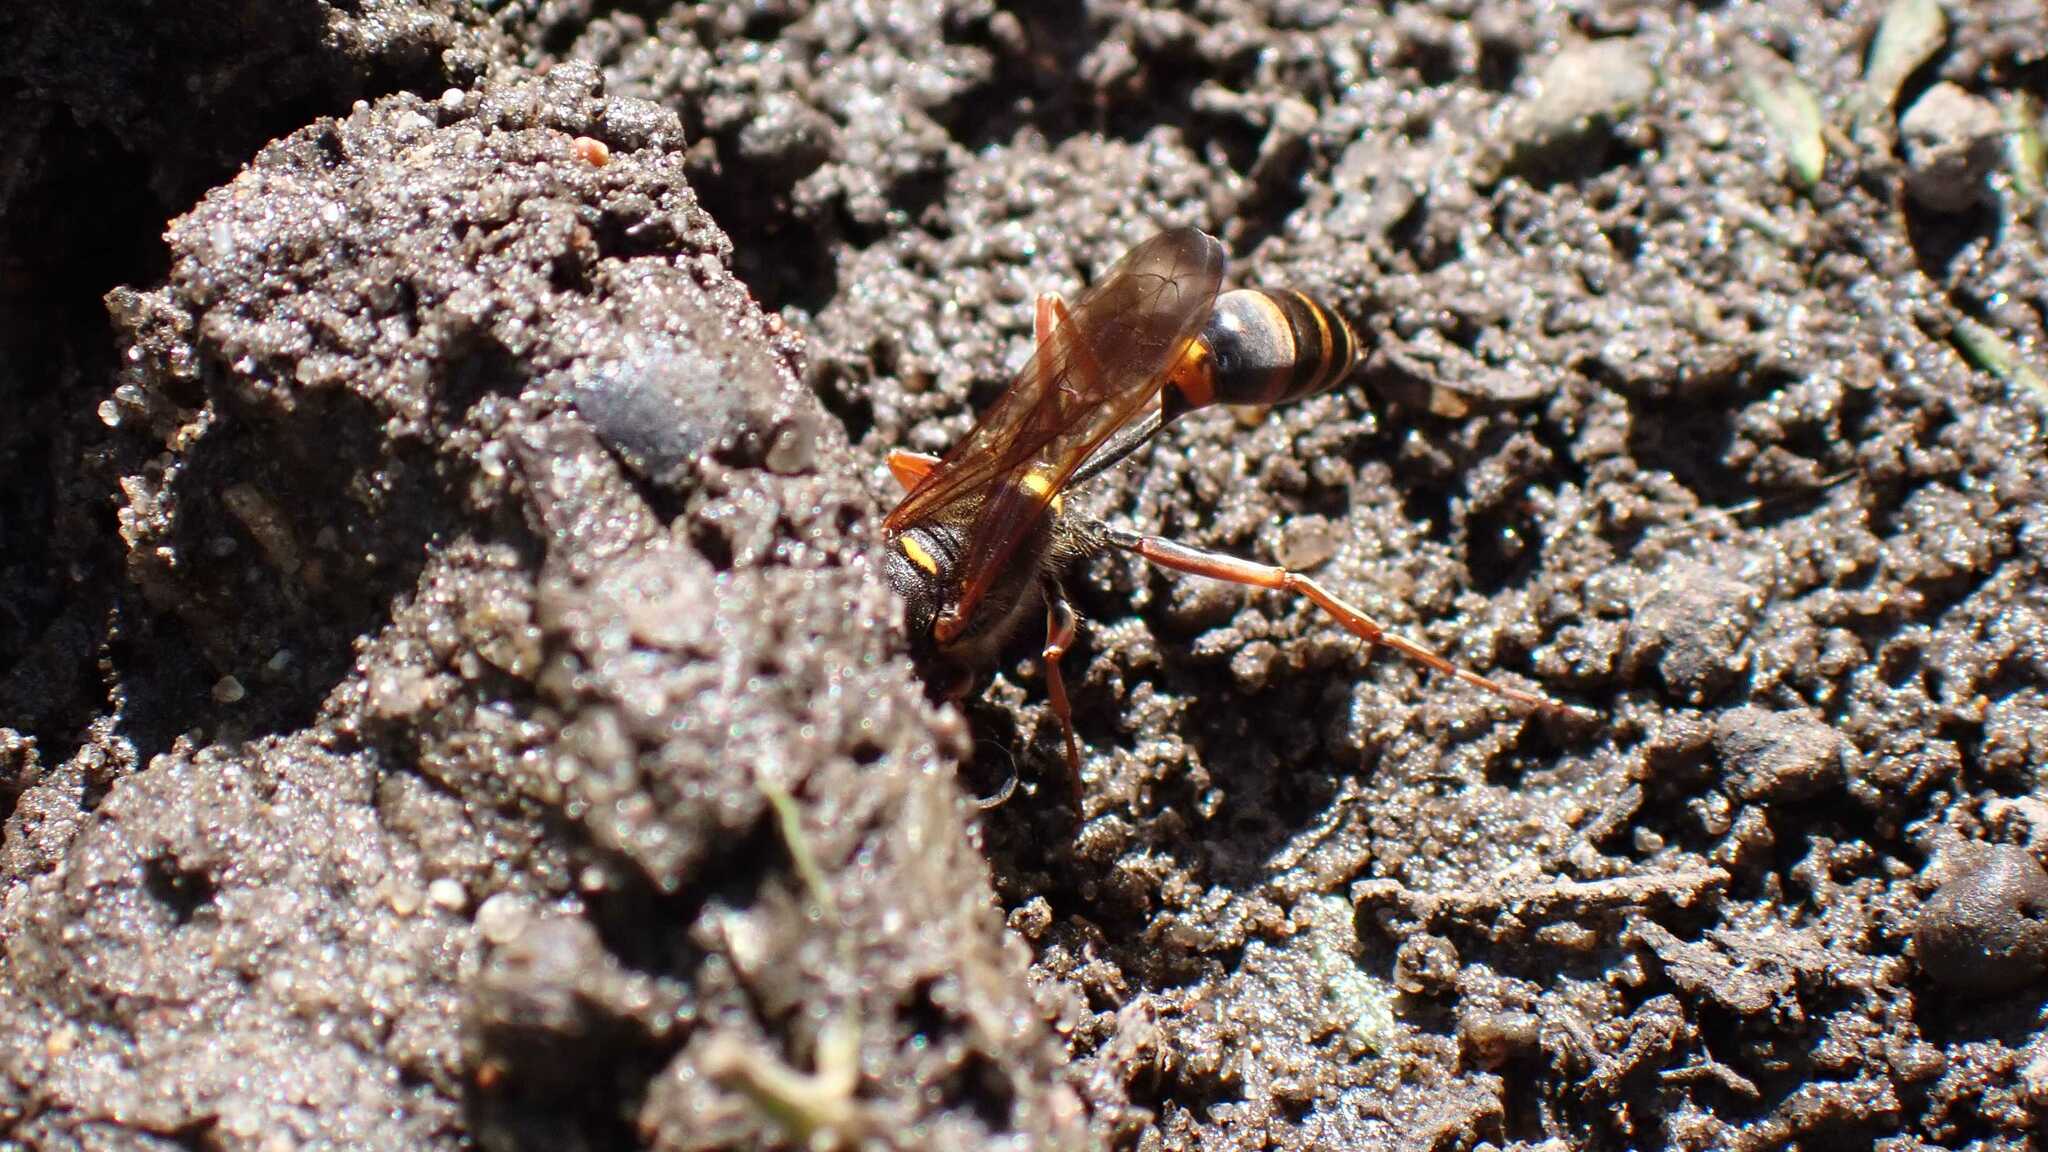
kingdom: Animalia
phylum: Arthropoda
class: Insecta
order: Hymenoptera
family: Sphecidae
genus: Sceliphron
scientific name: Sceliphron curvatum
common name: Pèlopèe
